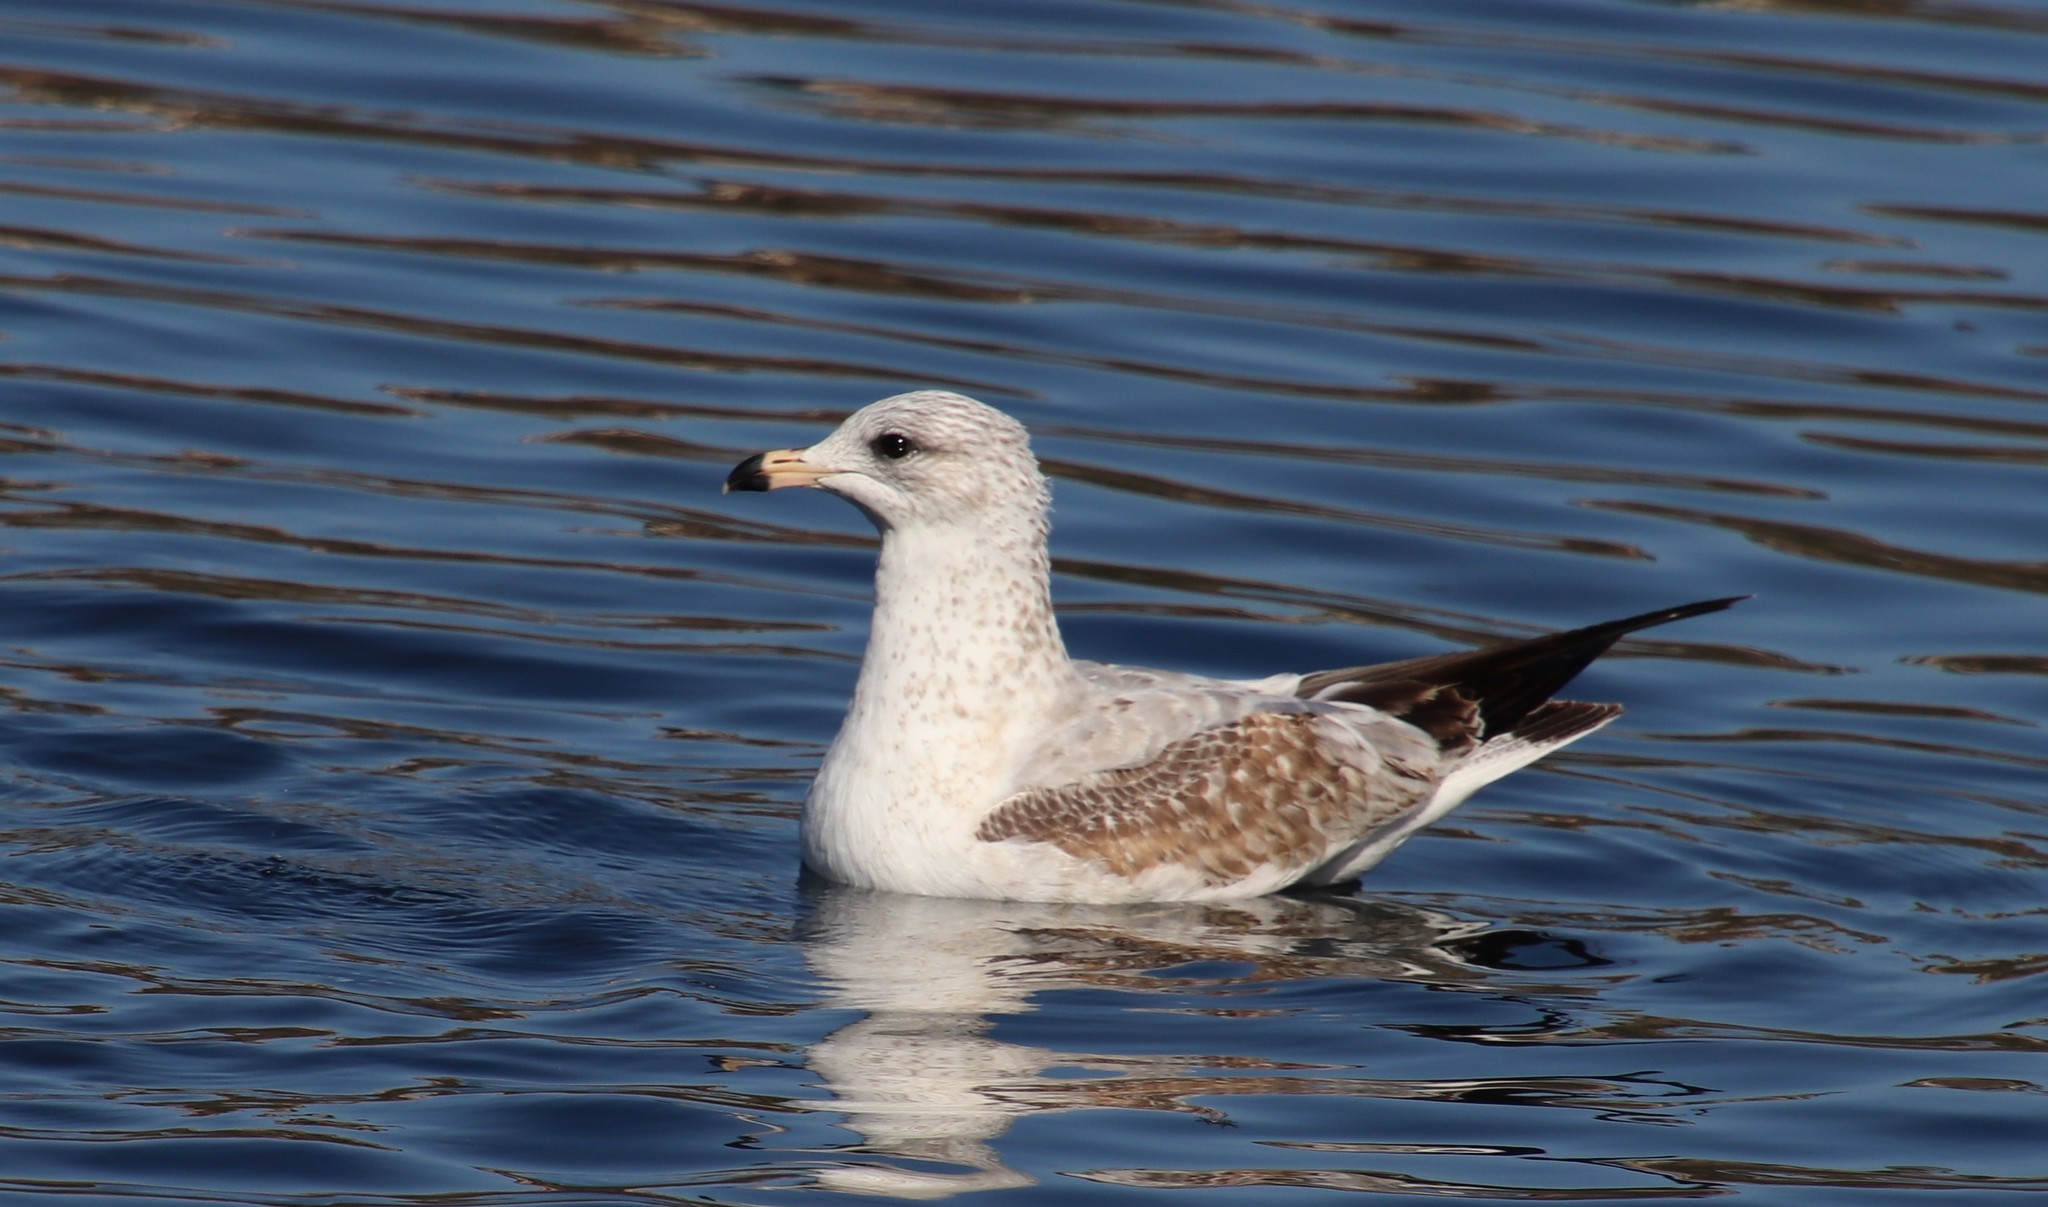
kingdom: Animalia
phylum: Chordata
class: Aves
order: Charadriiformes
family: Laridae
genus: Larus
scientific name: Larus delawarensis
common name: Ring-billed gull
